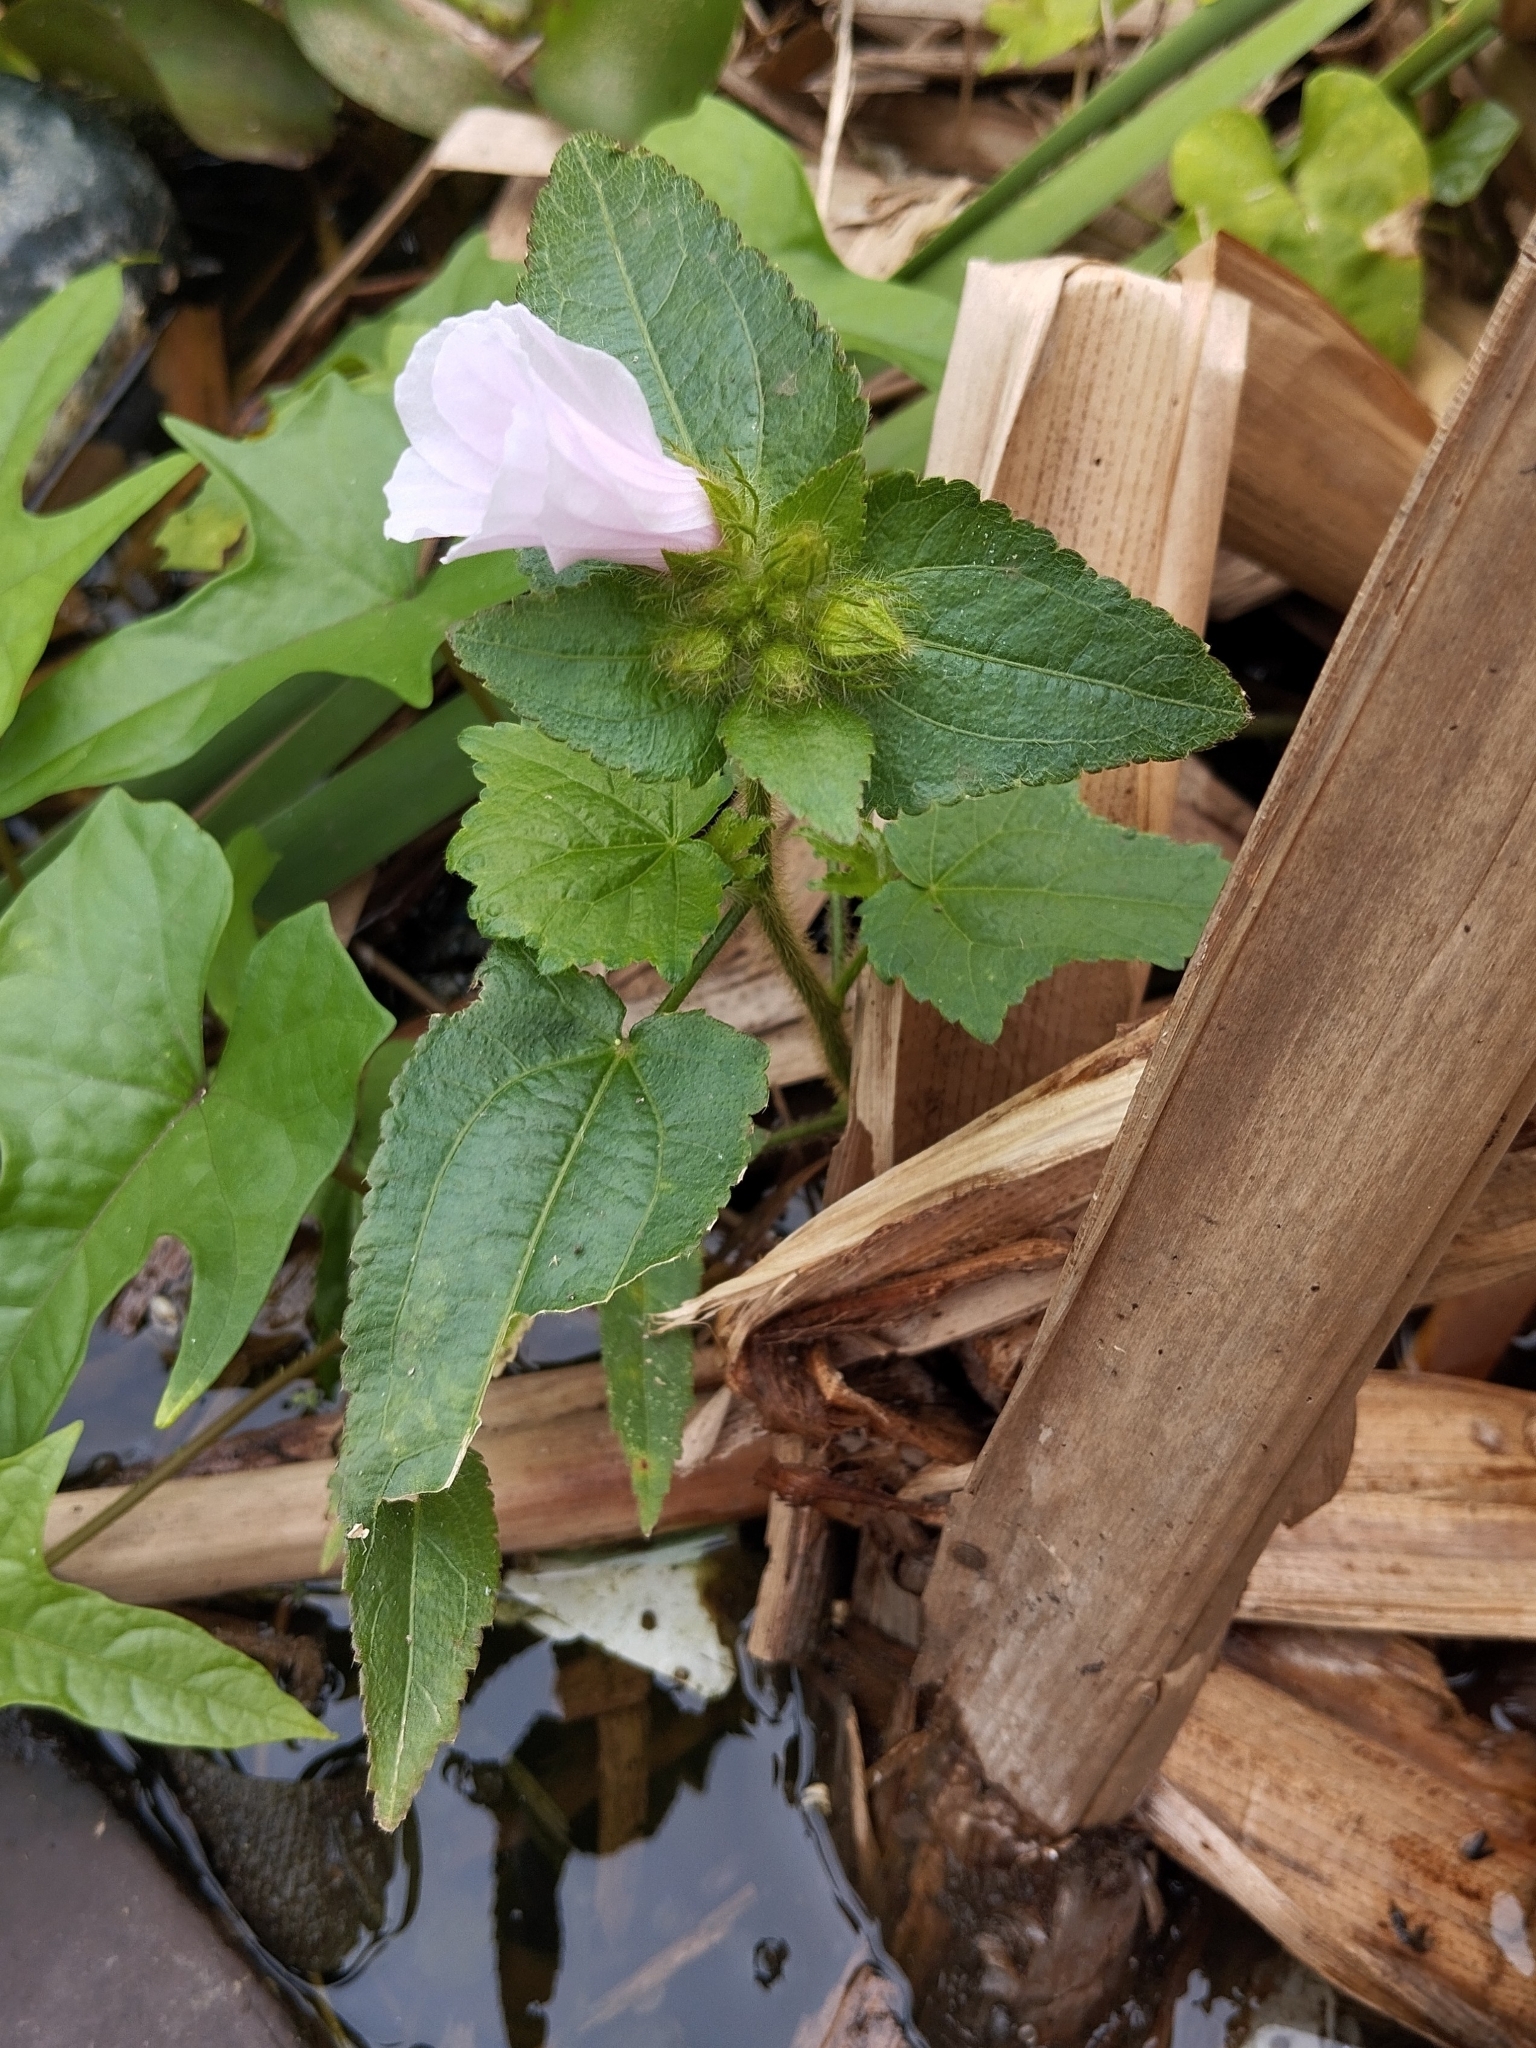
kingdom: Plantae
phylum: Tracheophyta
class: Magnoliopsida
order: Malvales
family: Malvaceae
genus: Urena
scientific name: Urena lobata
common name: Caesarweed
